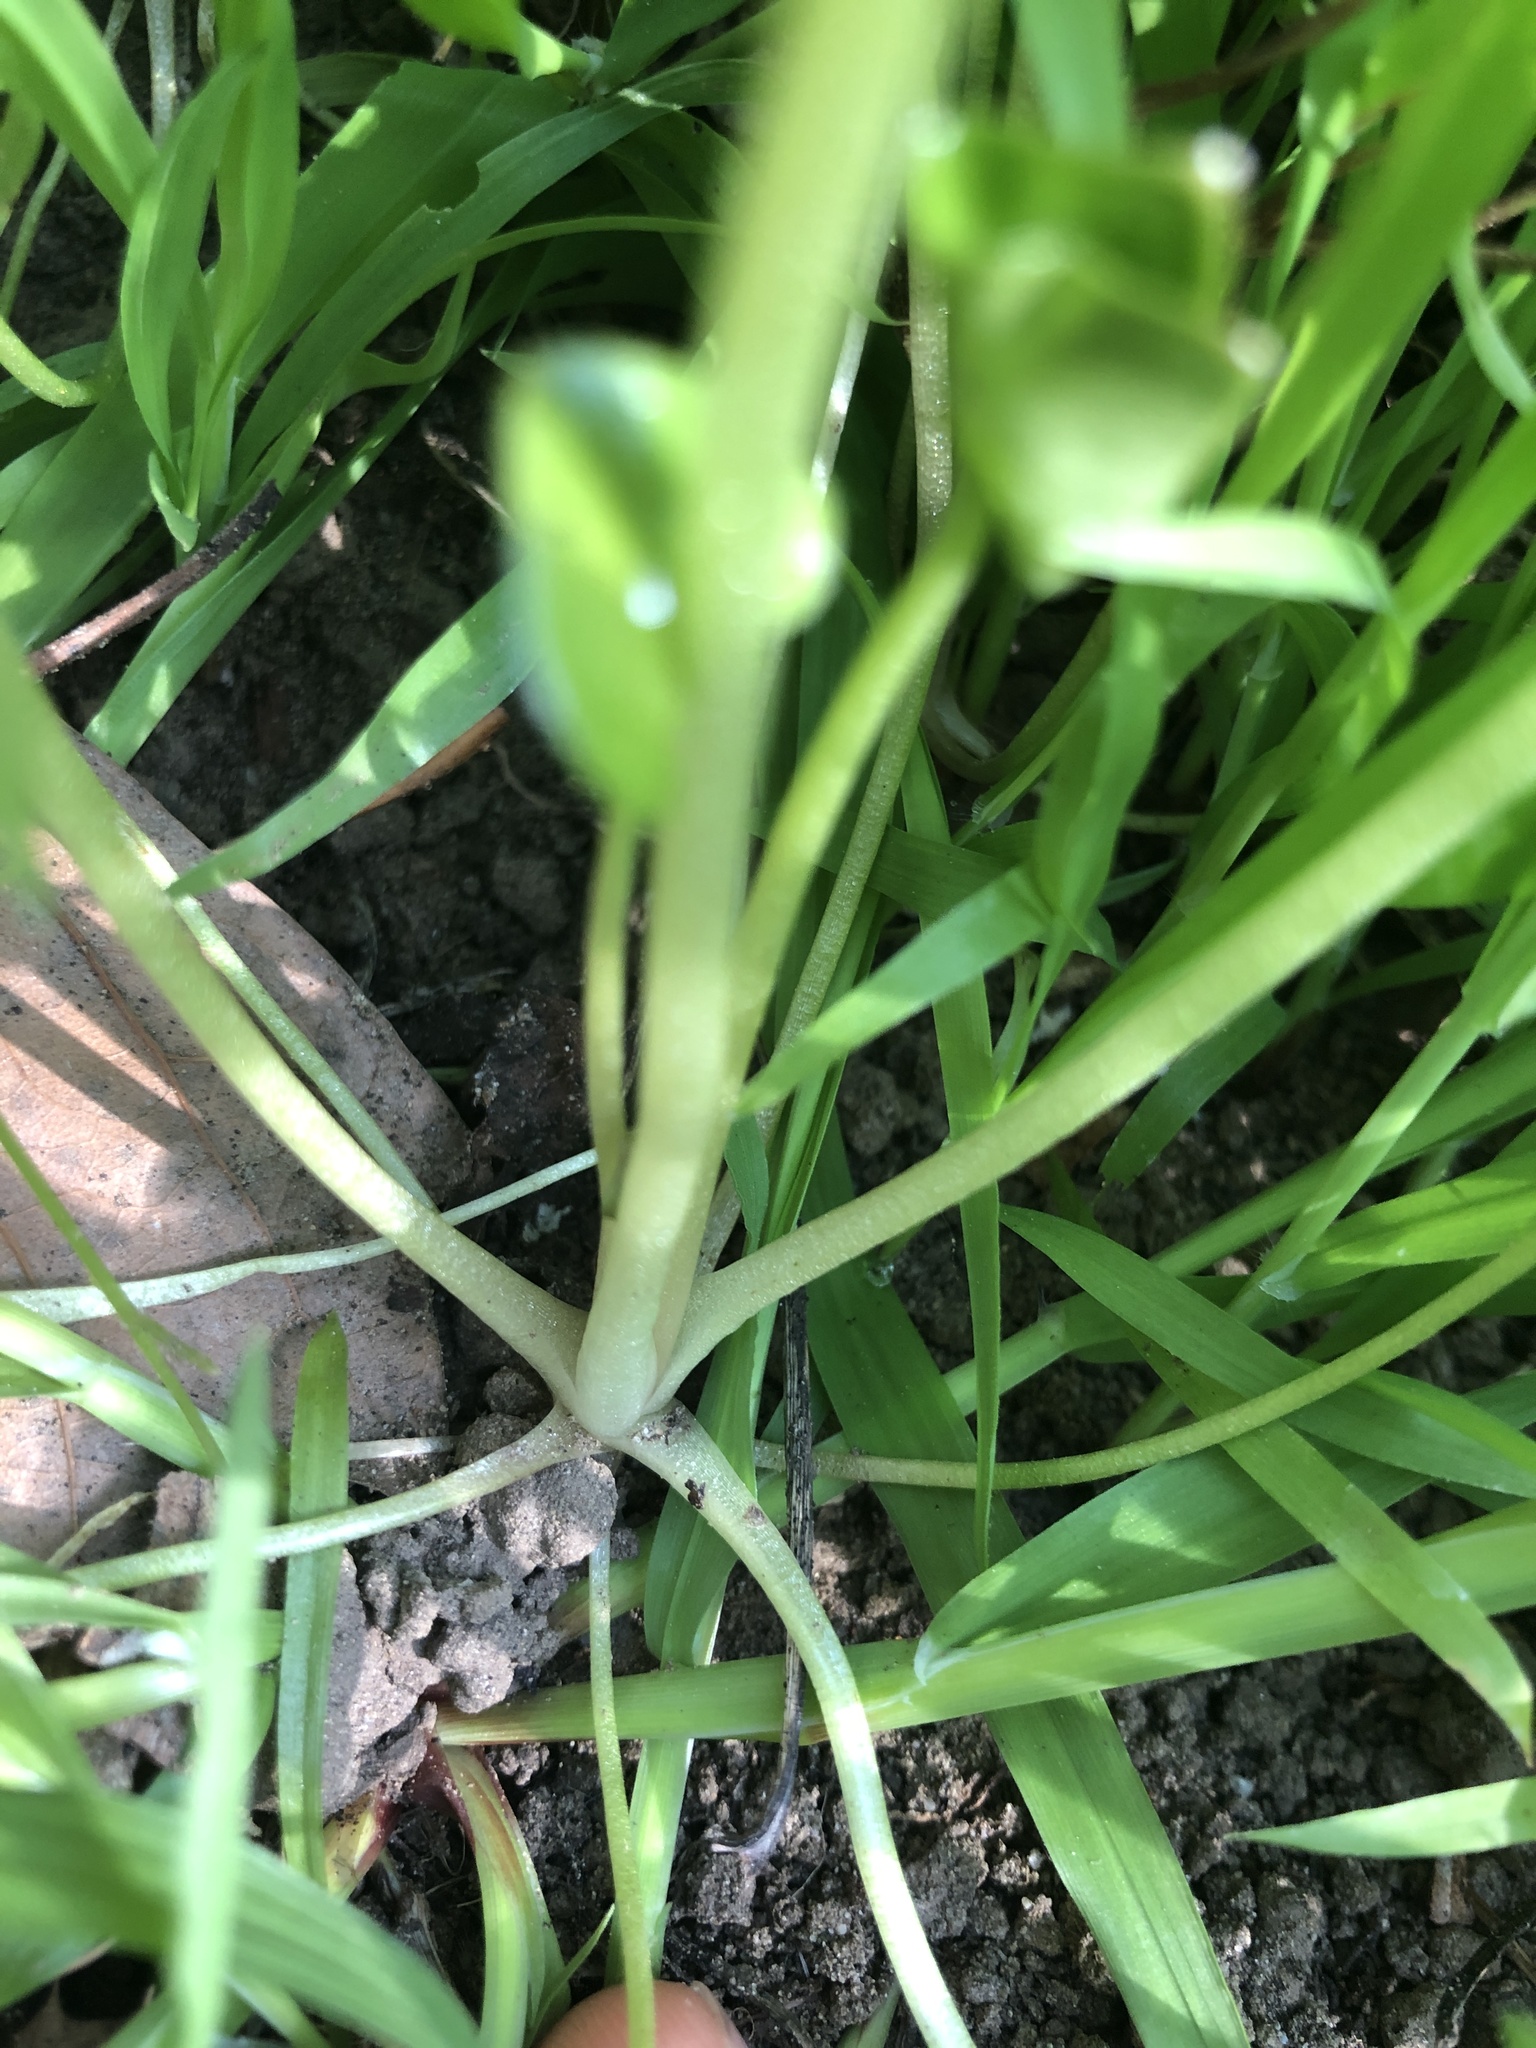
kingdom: Plantae
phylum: Tracheophyta
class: Magnoliopsida
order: Caryophyllales
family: Montiaceae
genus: Claytonia
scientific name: Claytonia perfoliata
